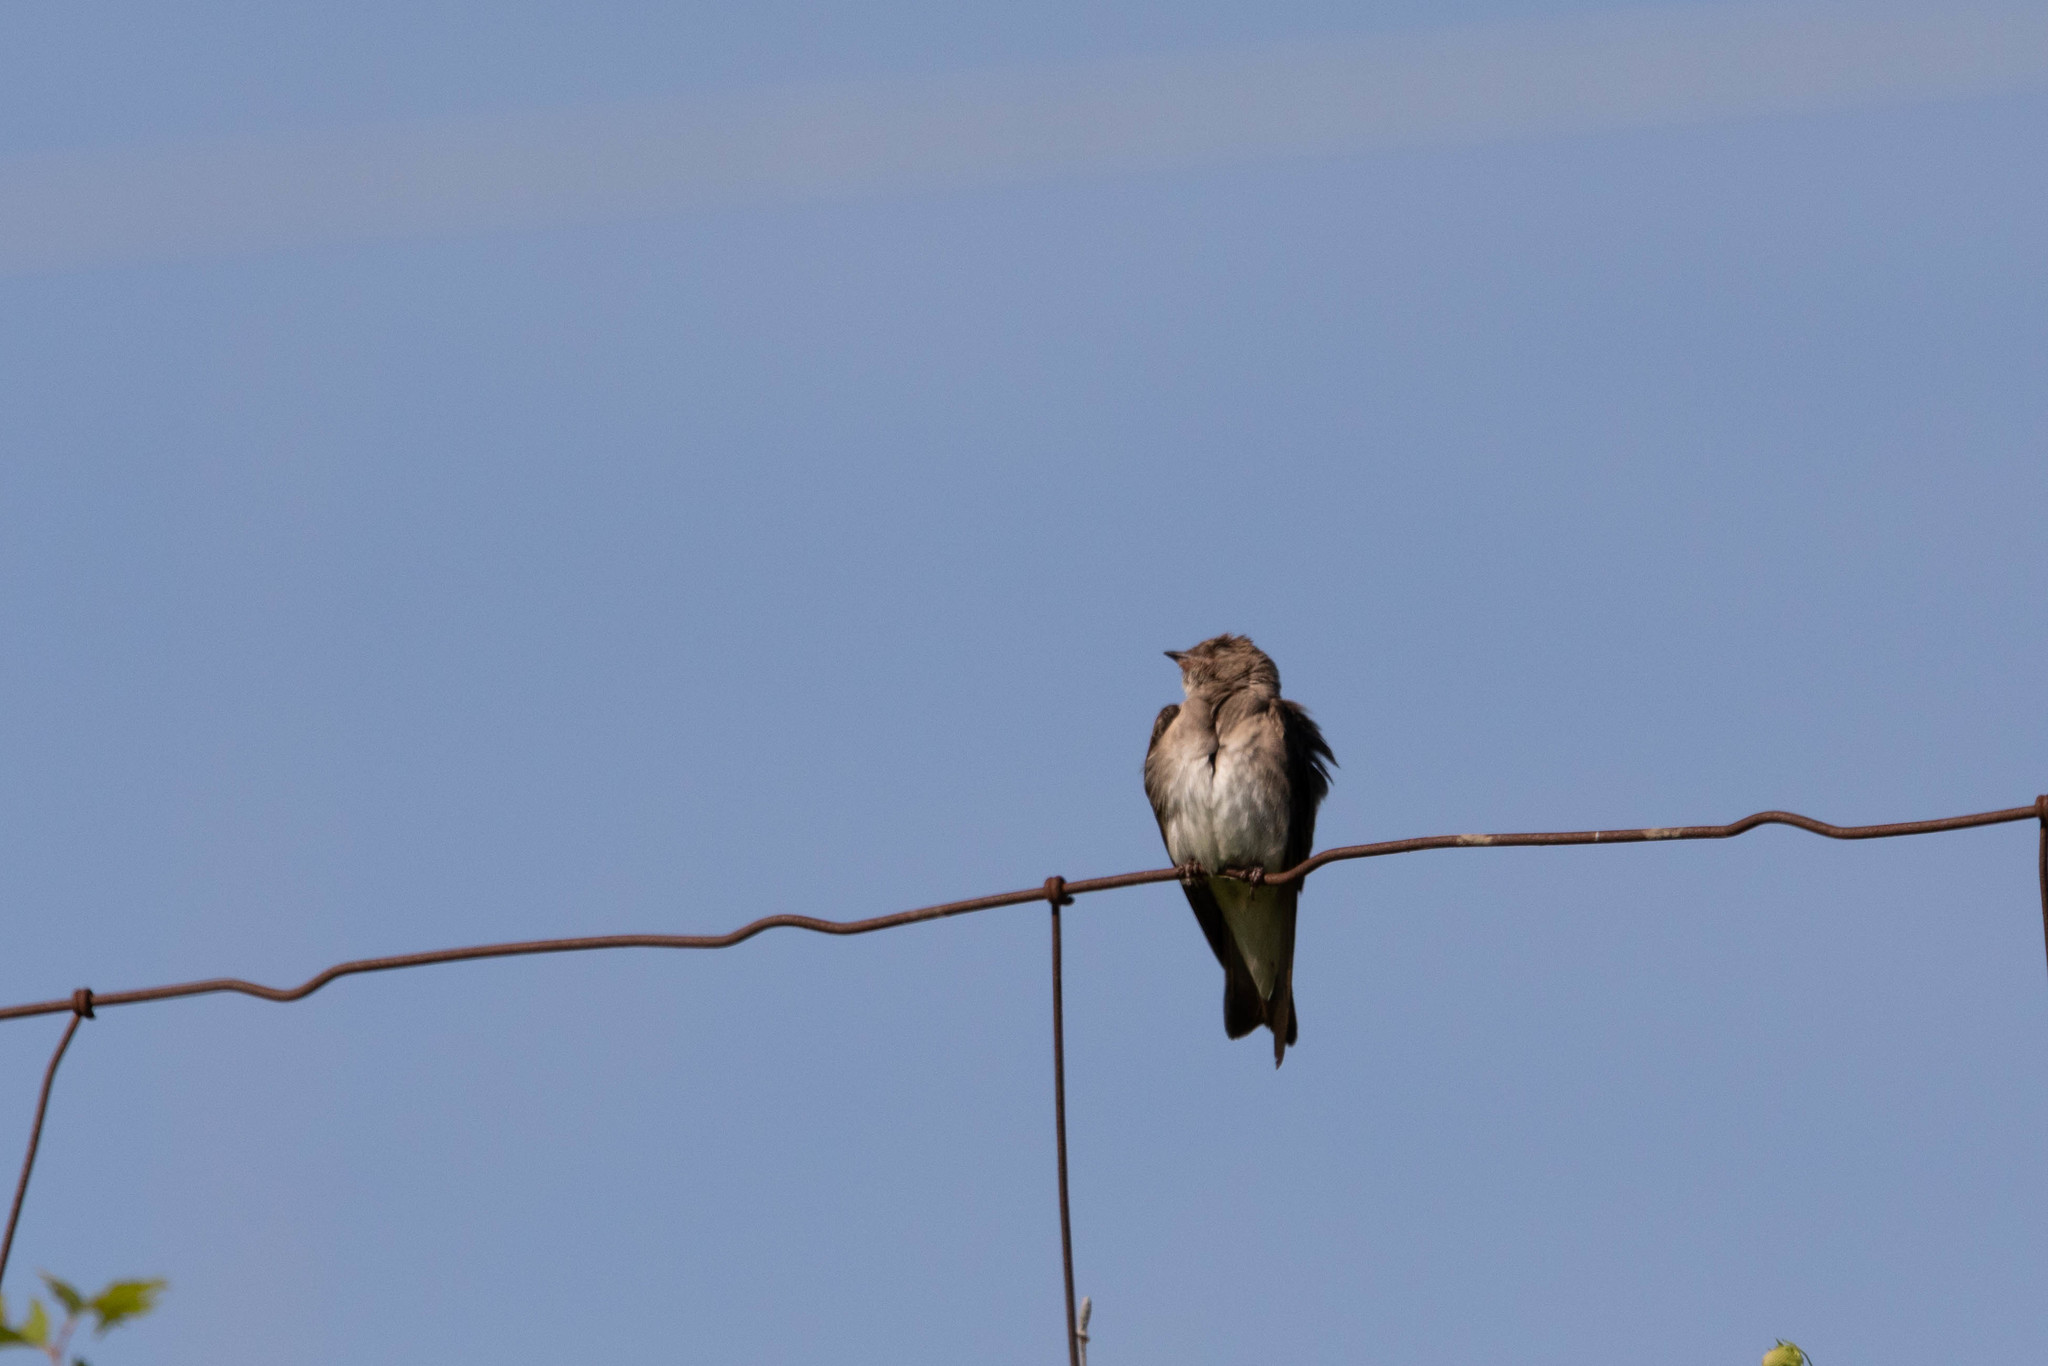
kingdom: Animalia
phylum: Chordata
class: Aves
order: Passeriformes
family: Hirundinidae
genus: Stelgidopteryx
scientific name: Stelgidopteryx serripennis
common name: Northern rough-winged swallow
